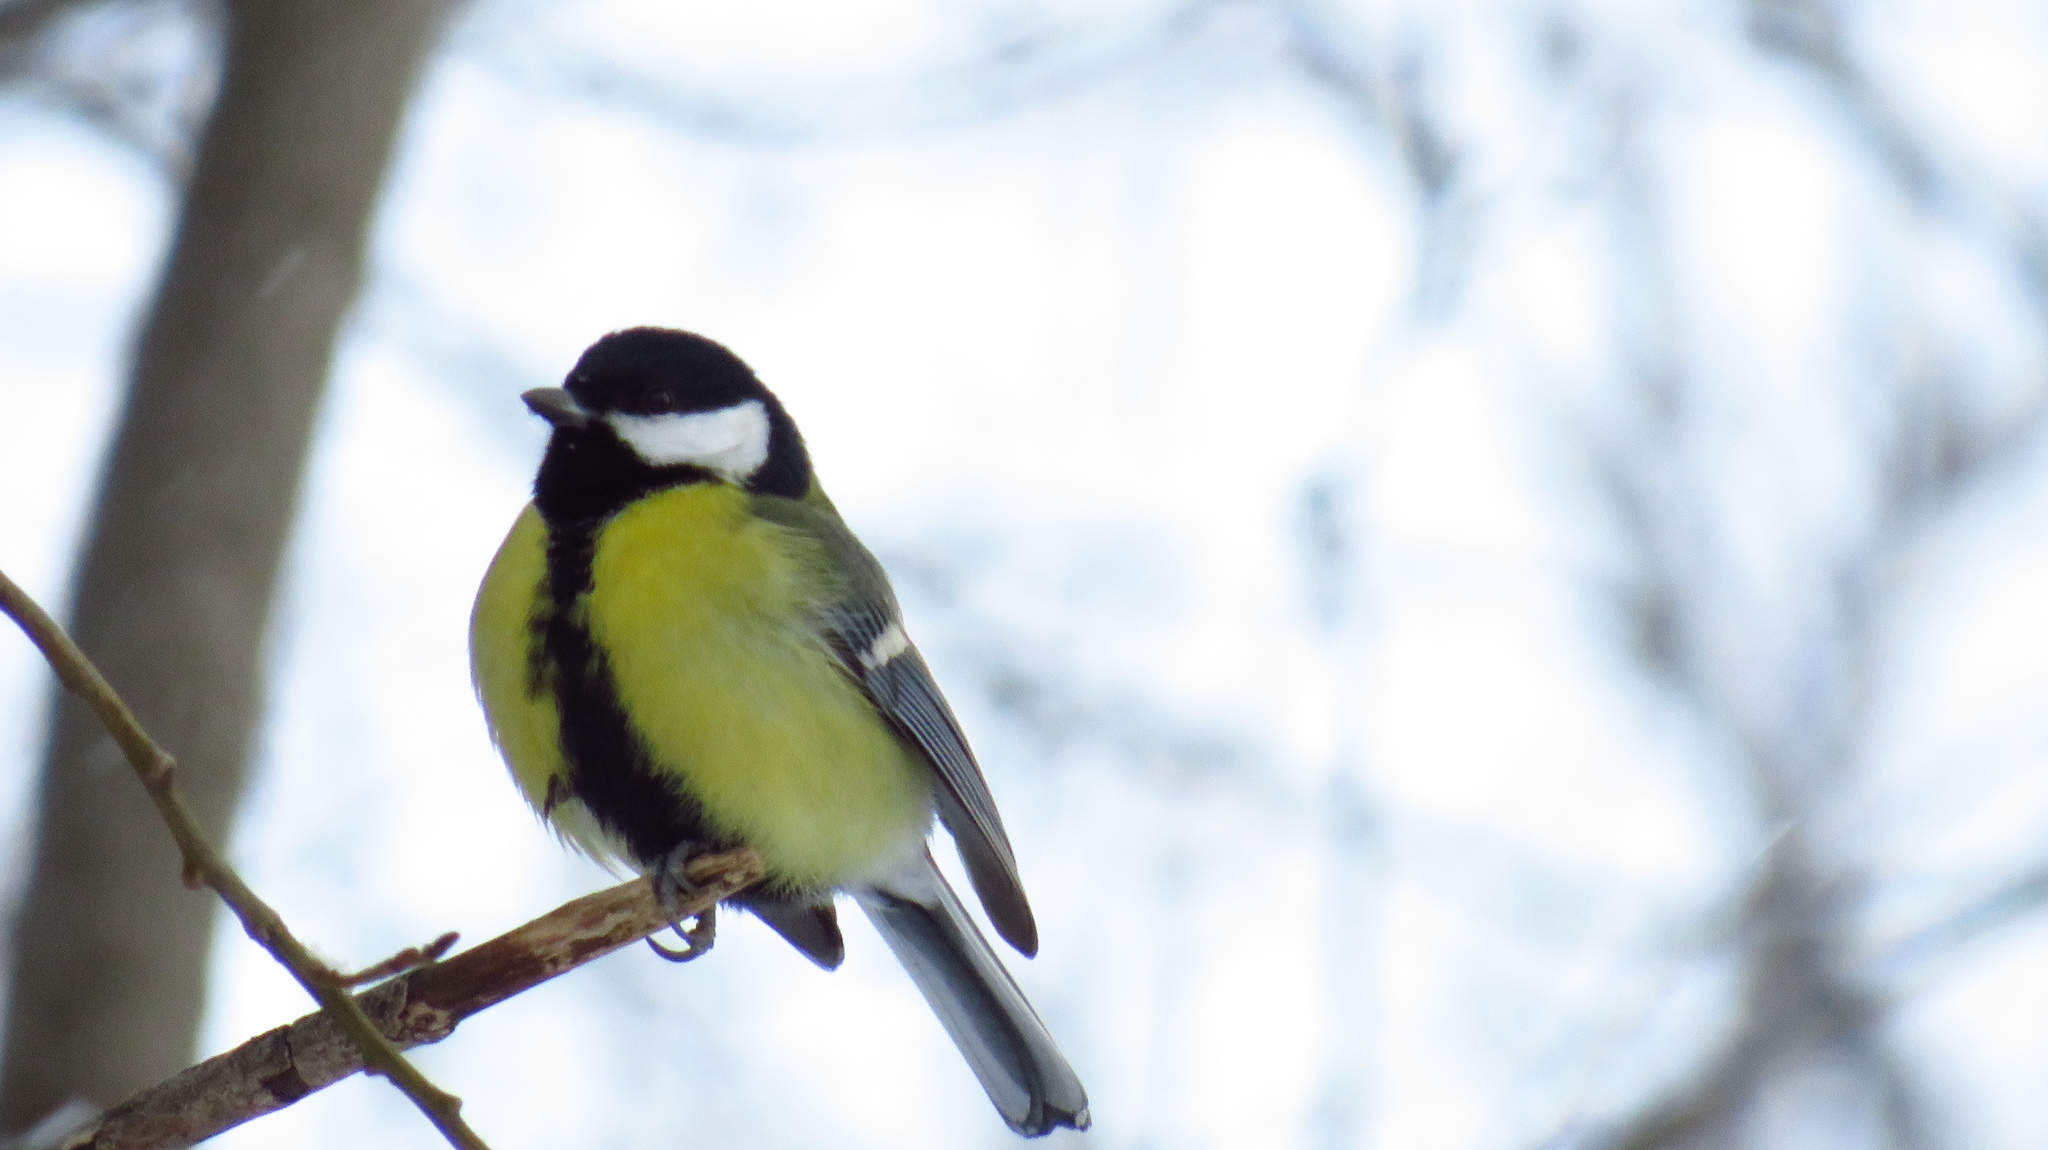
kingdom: Animalia
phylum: Chordata
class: Aves
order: Passeriformes
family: Paridae
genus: Parus
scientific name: Parus major
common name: Great tit
